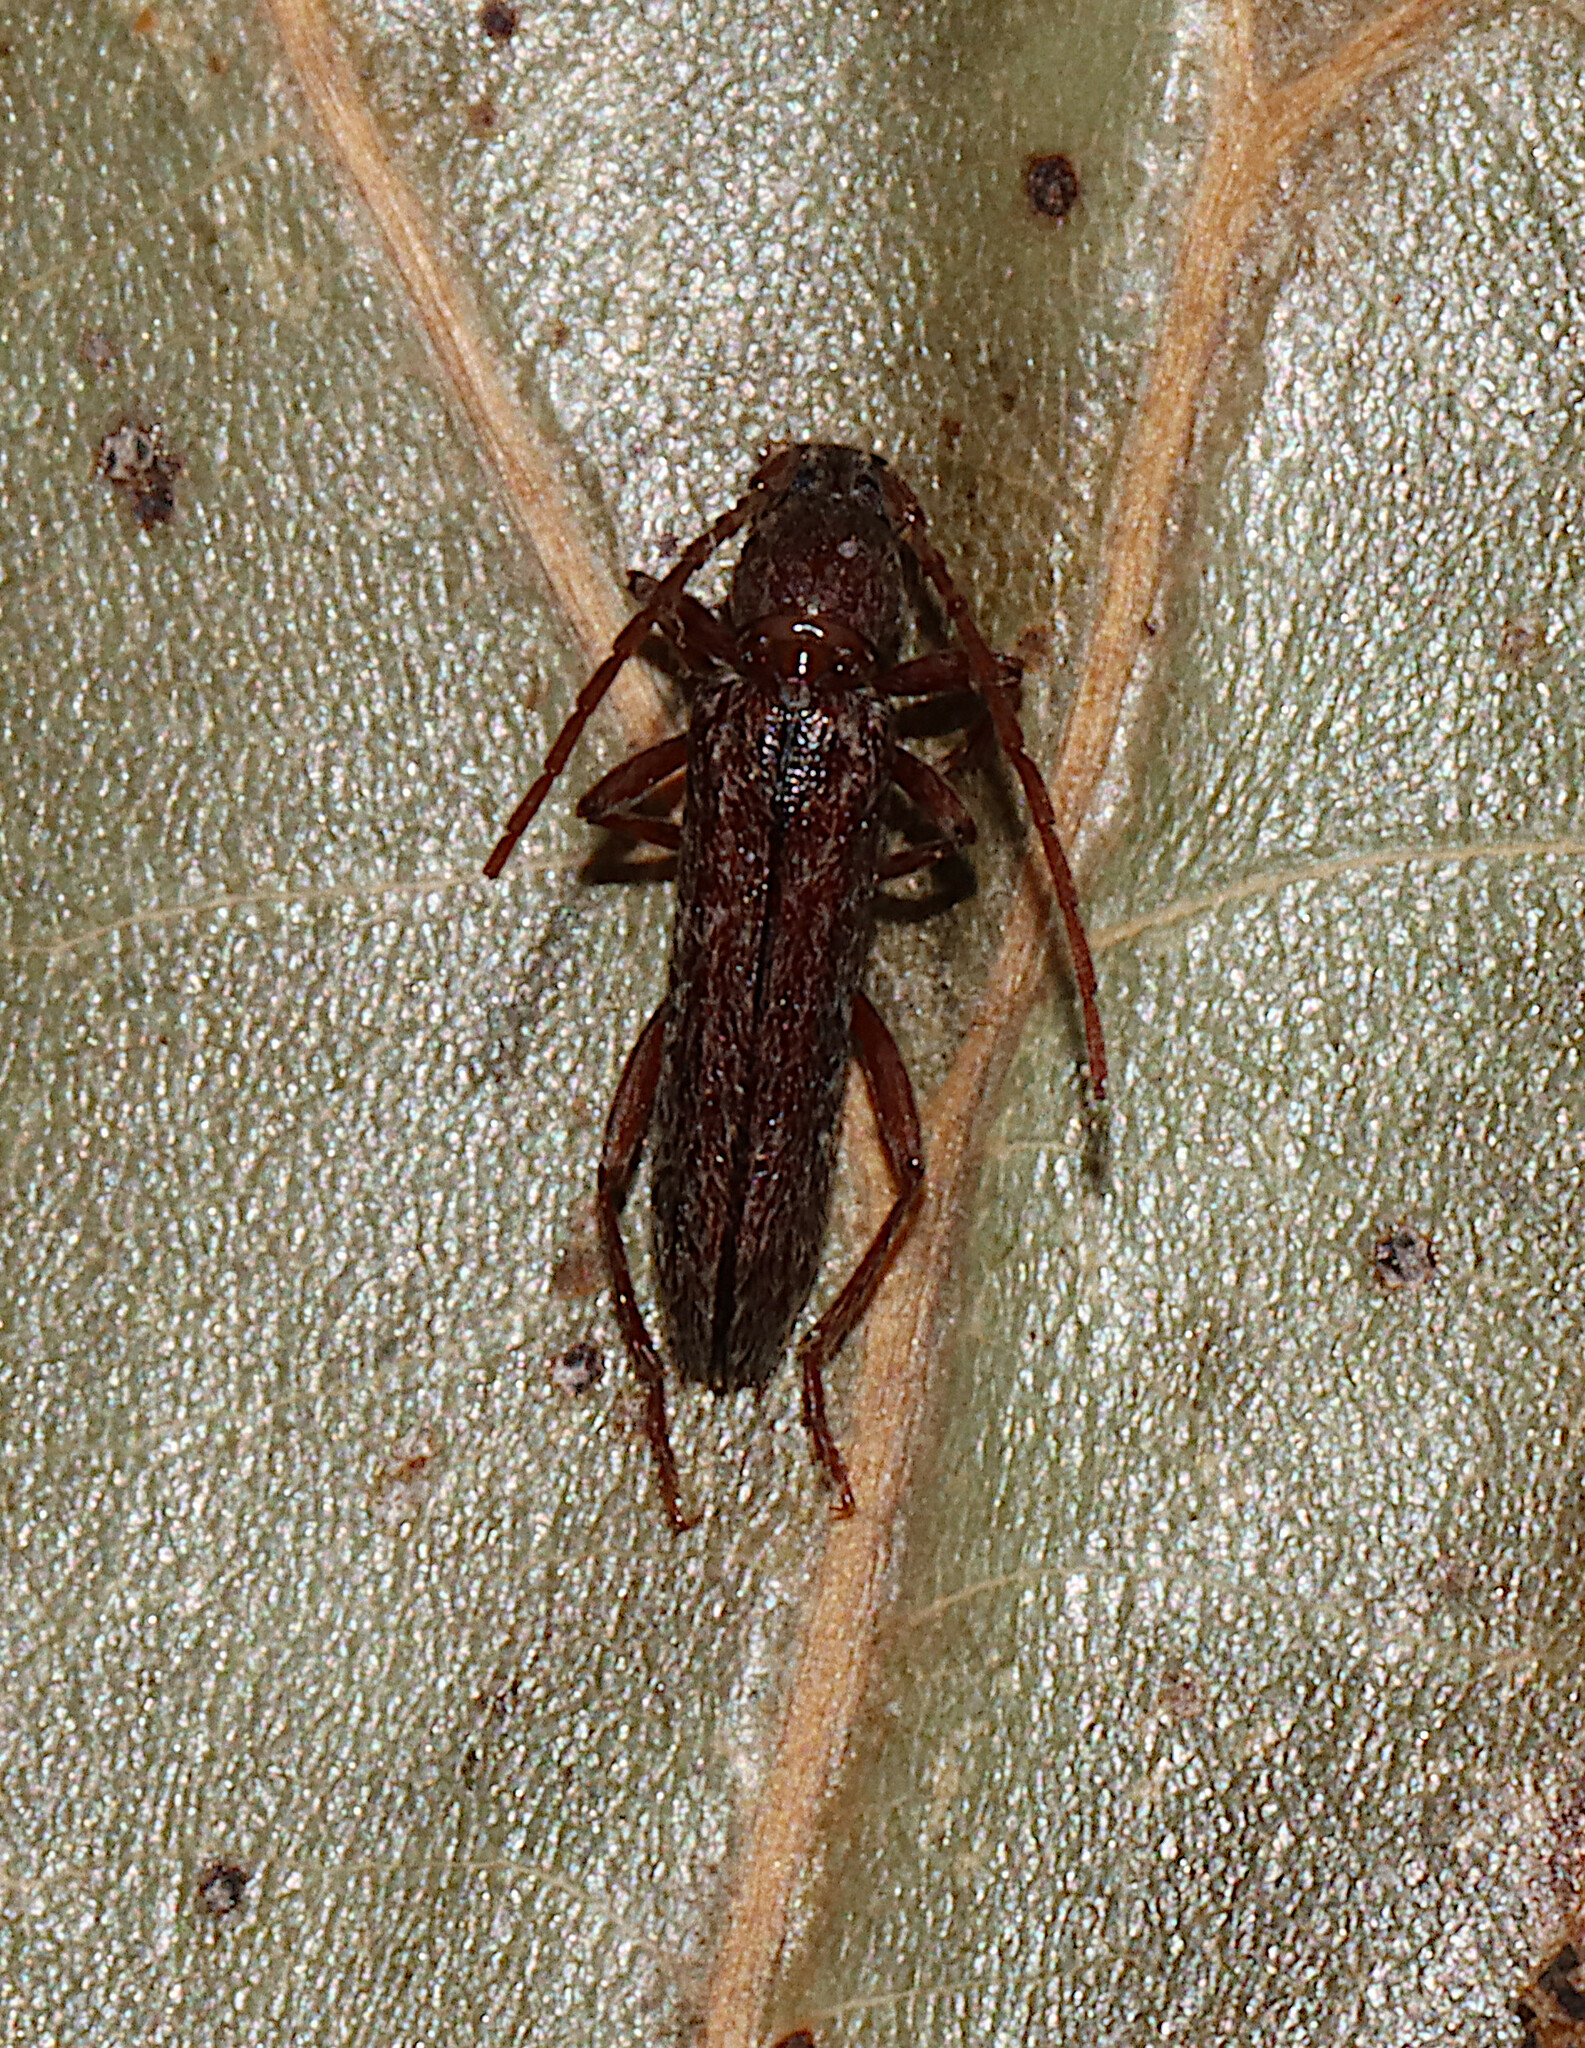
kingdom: Animalia
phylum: Arthropoda
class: Insecta
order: Coleoptera
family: Cerambycidae
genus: Anelaphus
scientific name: Anelaphus villosus
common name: Twig pruner
